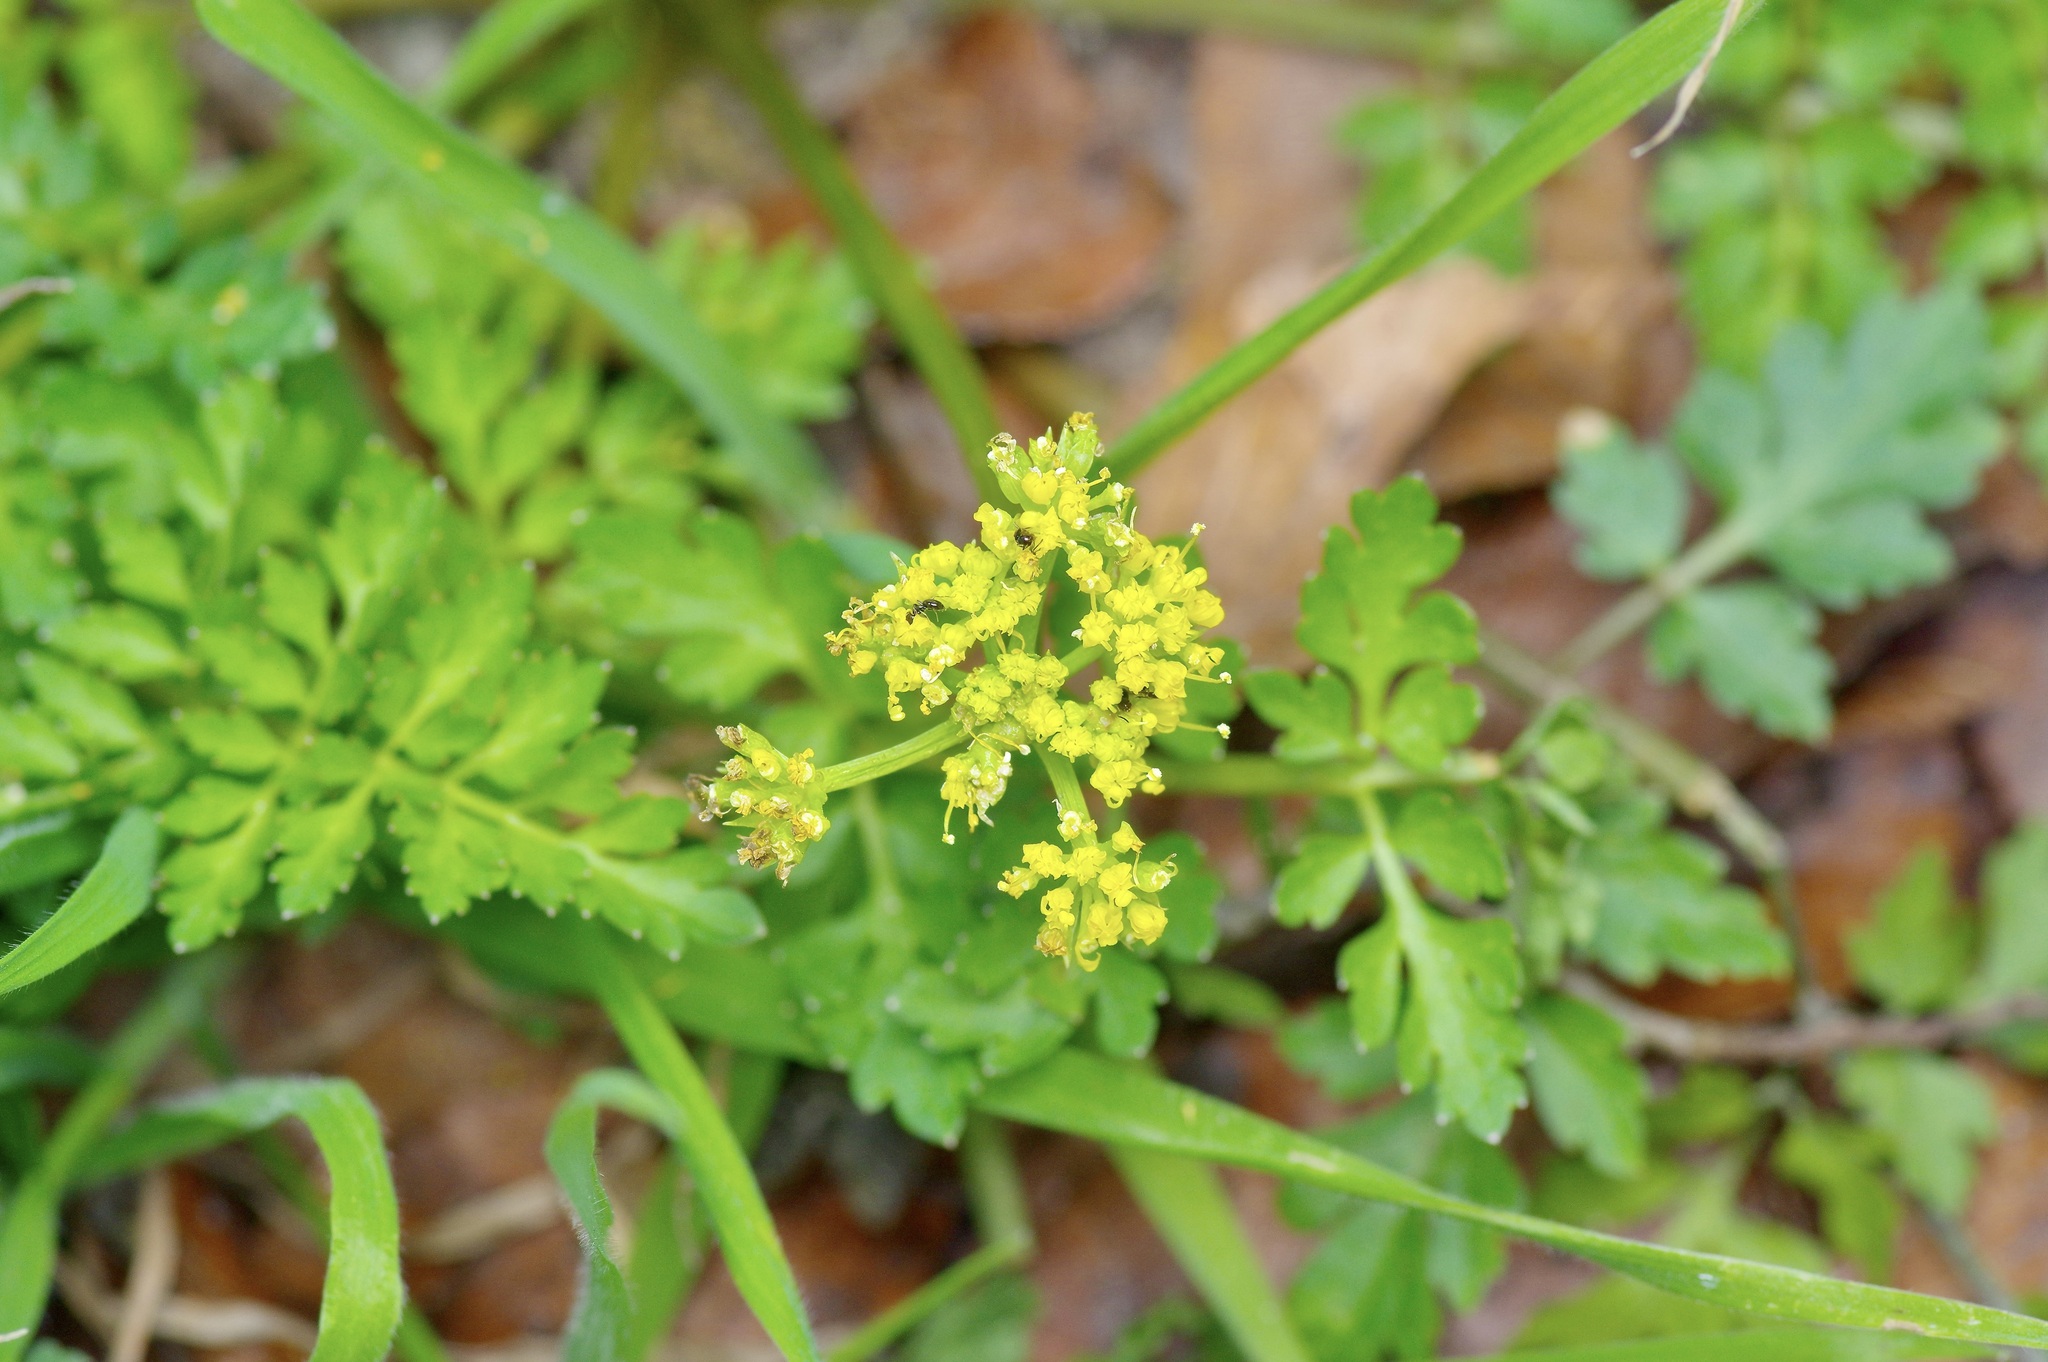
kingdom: Plantae
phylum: Tracheophyta
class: Magnoliopsida
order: Apiales
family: Apiaceae
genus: Tauschia
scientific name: Tauschia texana
